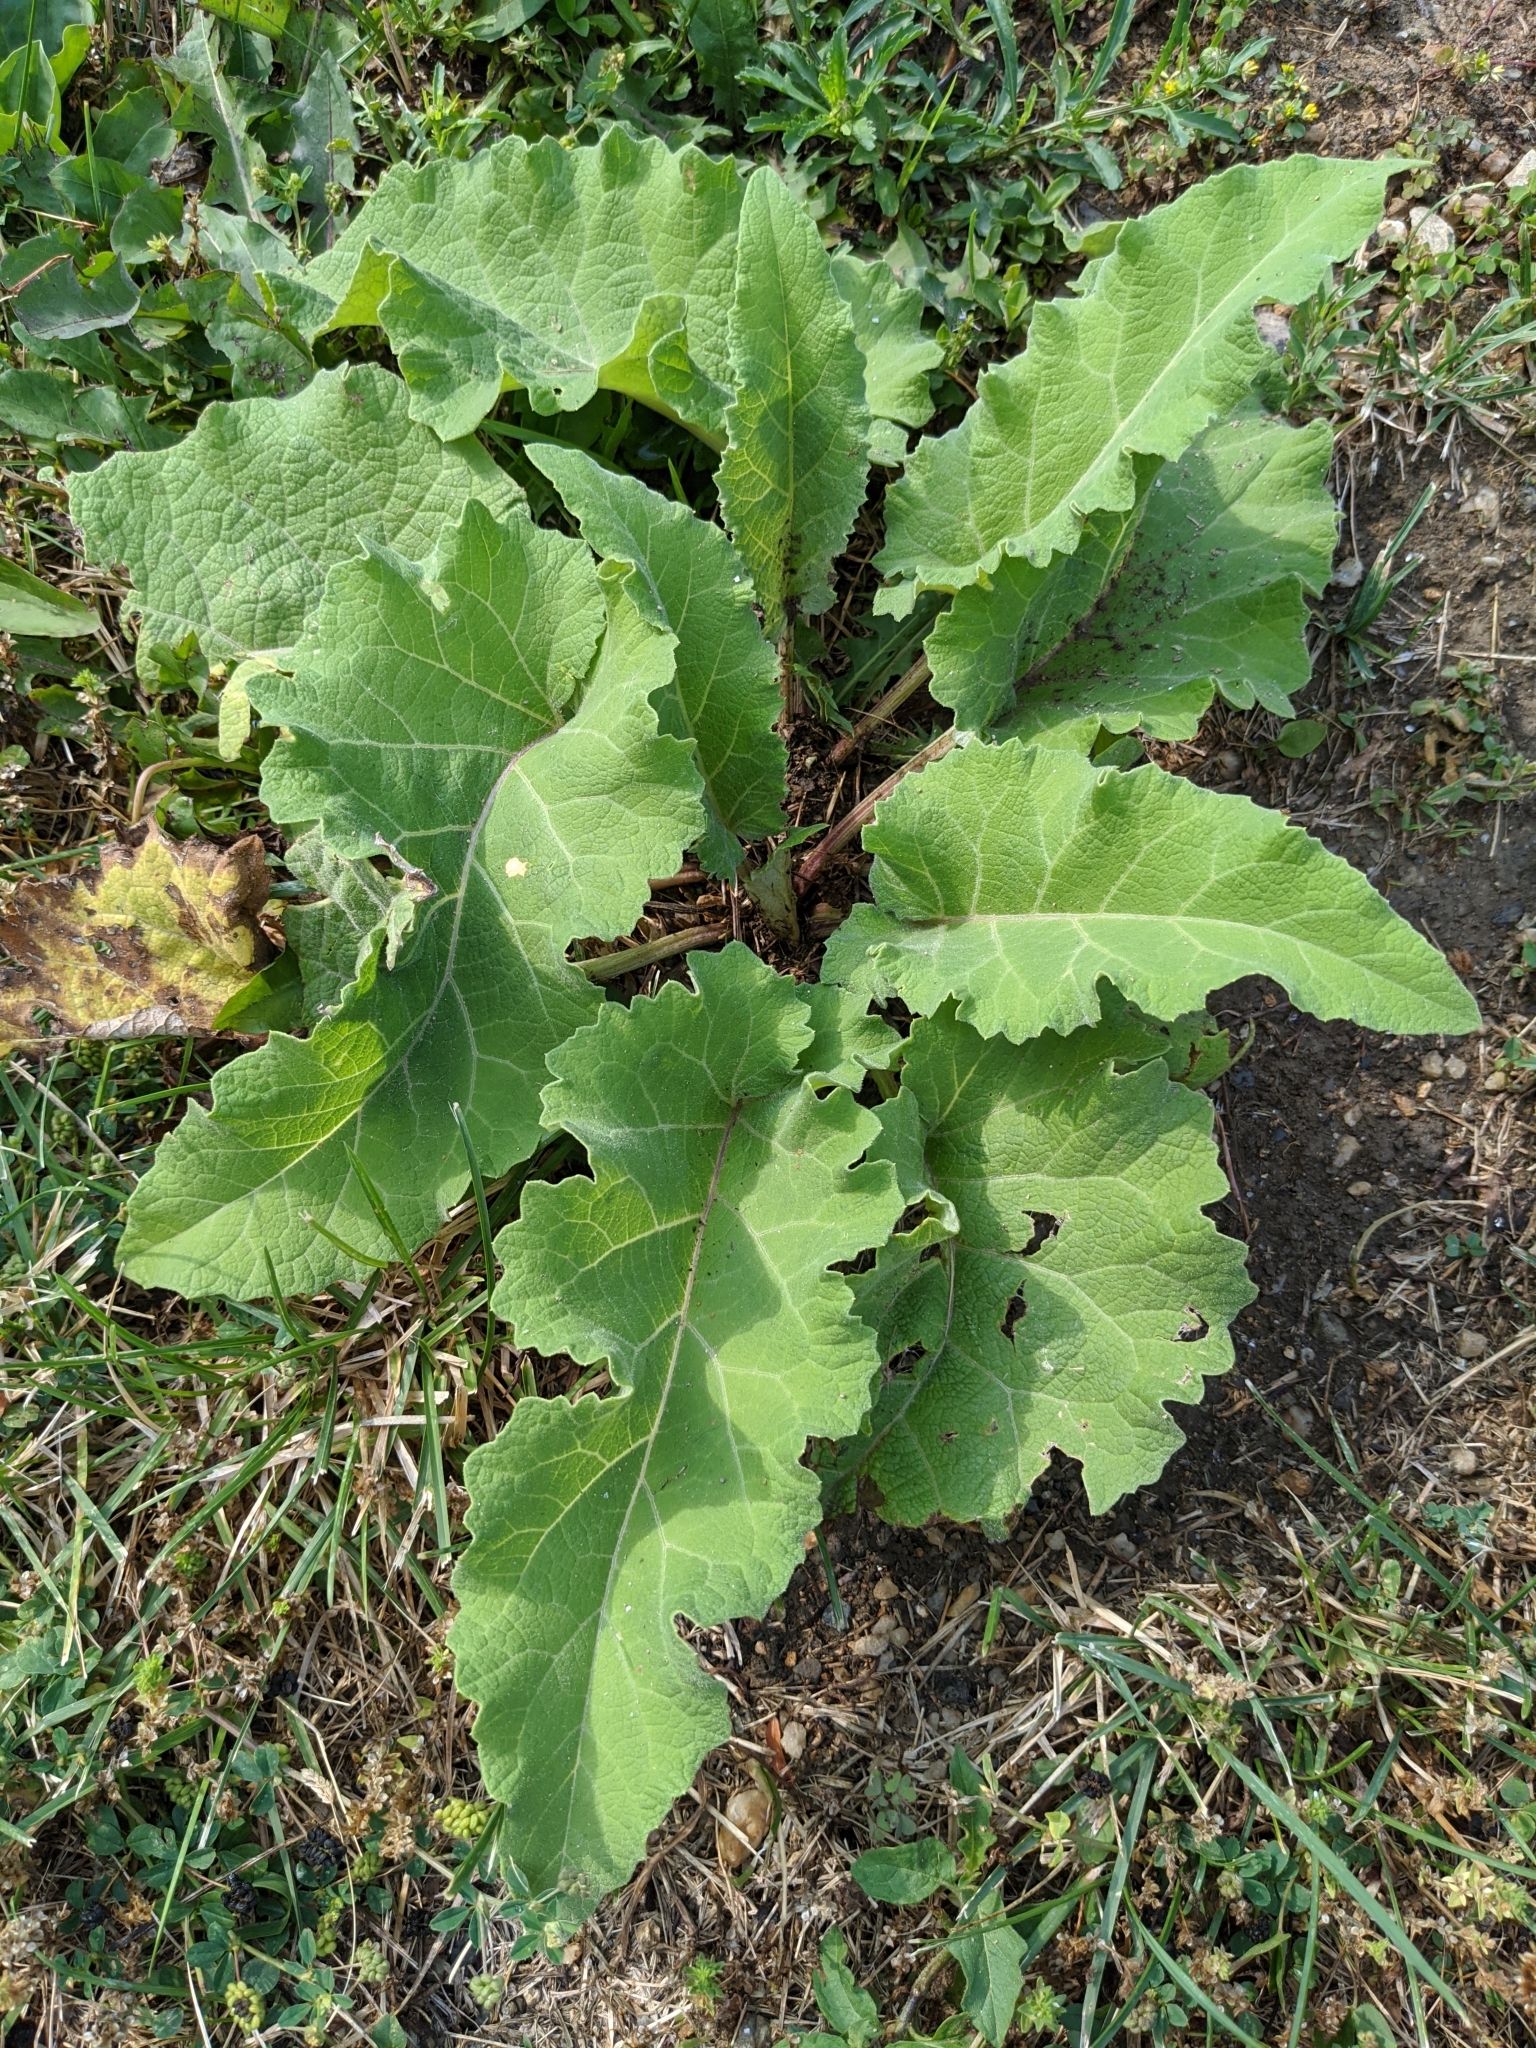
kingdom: Plantae
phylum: Tracheophyta
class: Magnoliopsida
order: Asterales
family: Asteraceae
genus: Arctium
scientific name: Arctium
